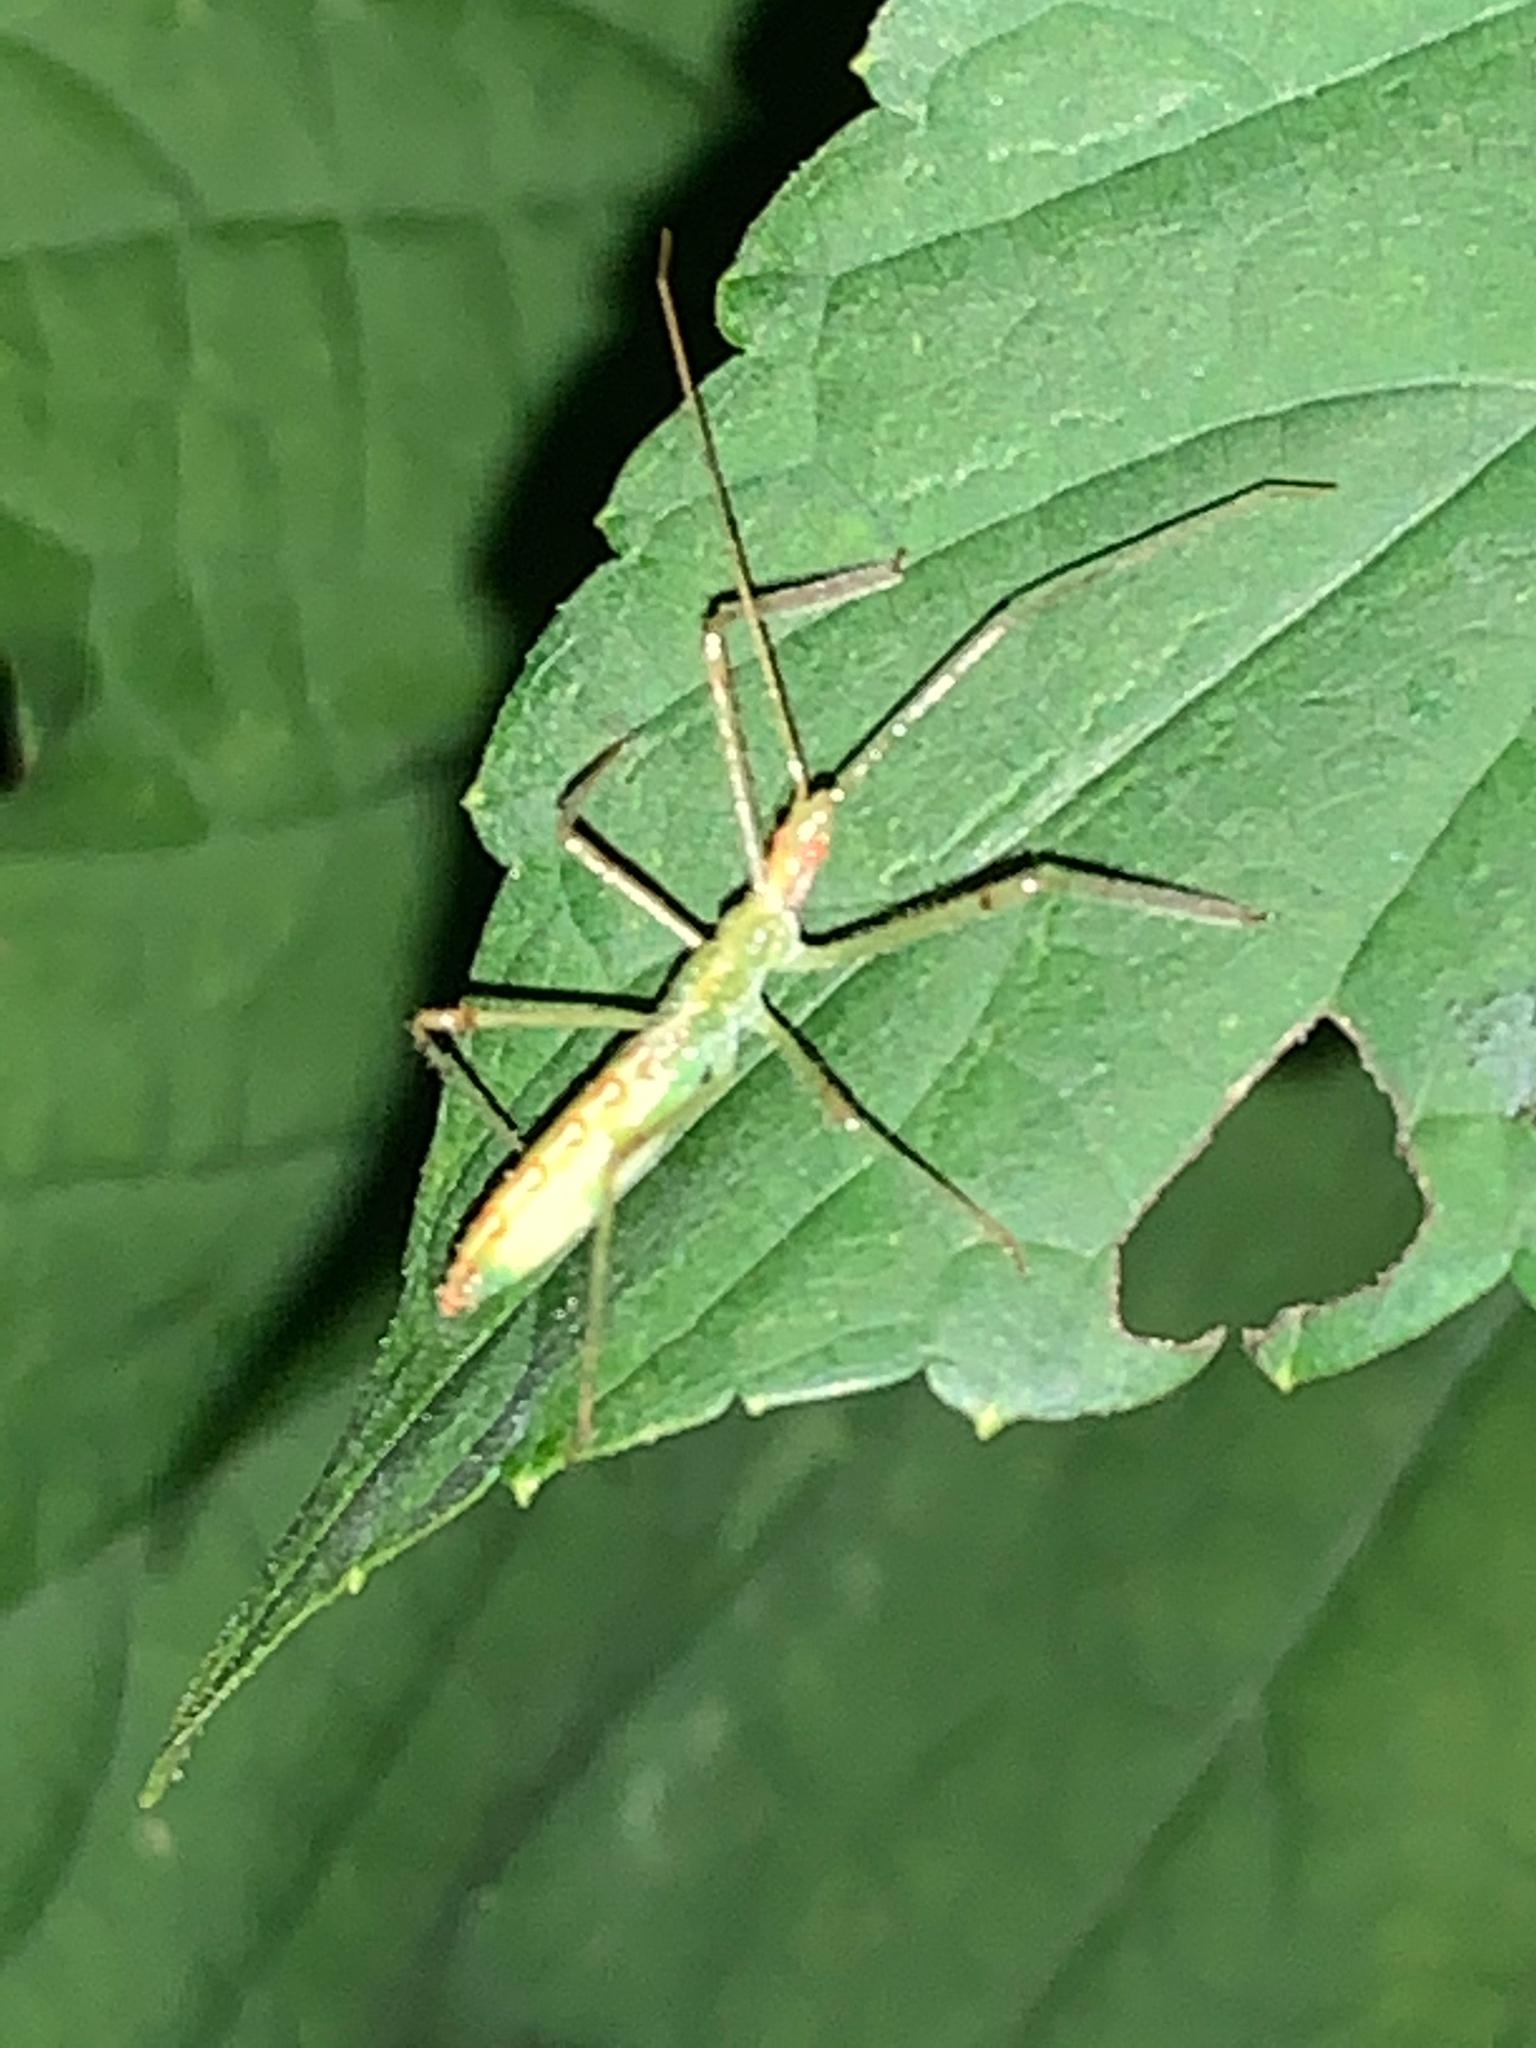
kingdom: Animalia
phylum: Arthropoda
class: Insecta
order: Hemiptera
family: Reduviidae
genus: Zelus
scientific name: Zelus luridus
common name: Pale green assassin bug
